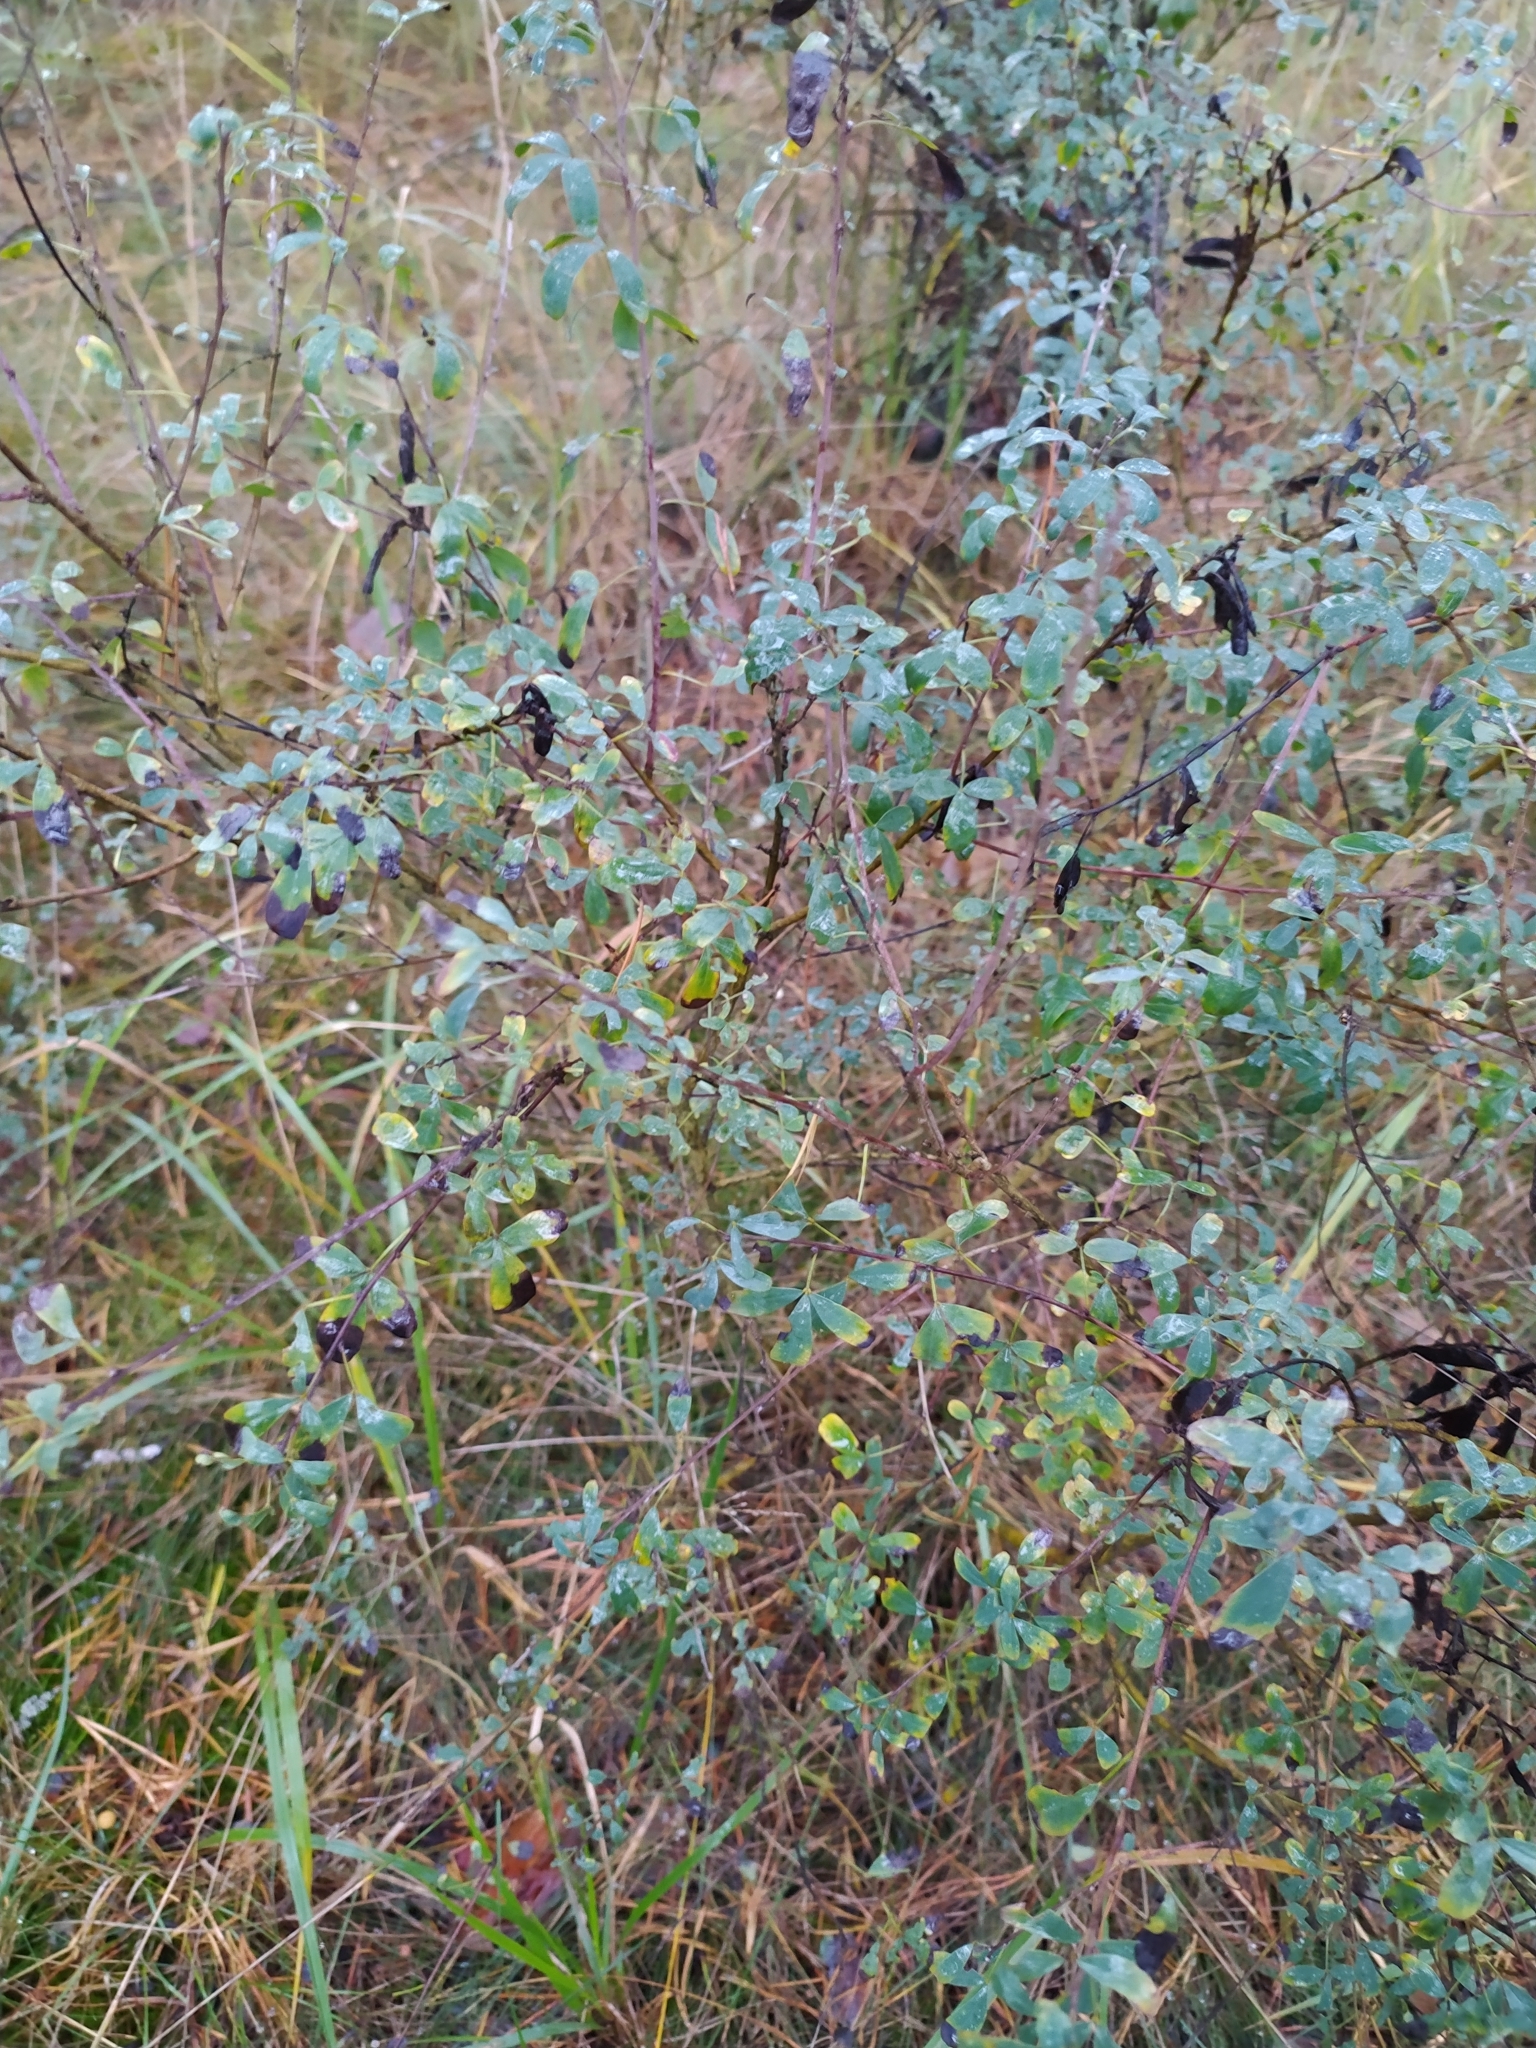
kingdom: Plantae
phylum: Tracheophyta
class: Magnoliopsida
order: Fabales
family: Fabaceae
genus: Chamaecytisus
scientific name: Chamaecytisus ruthenicus
